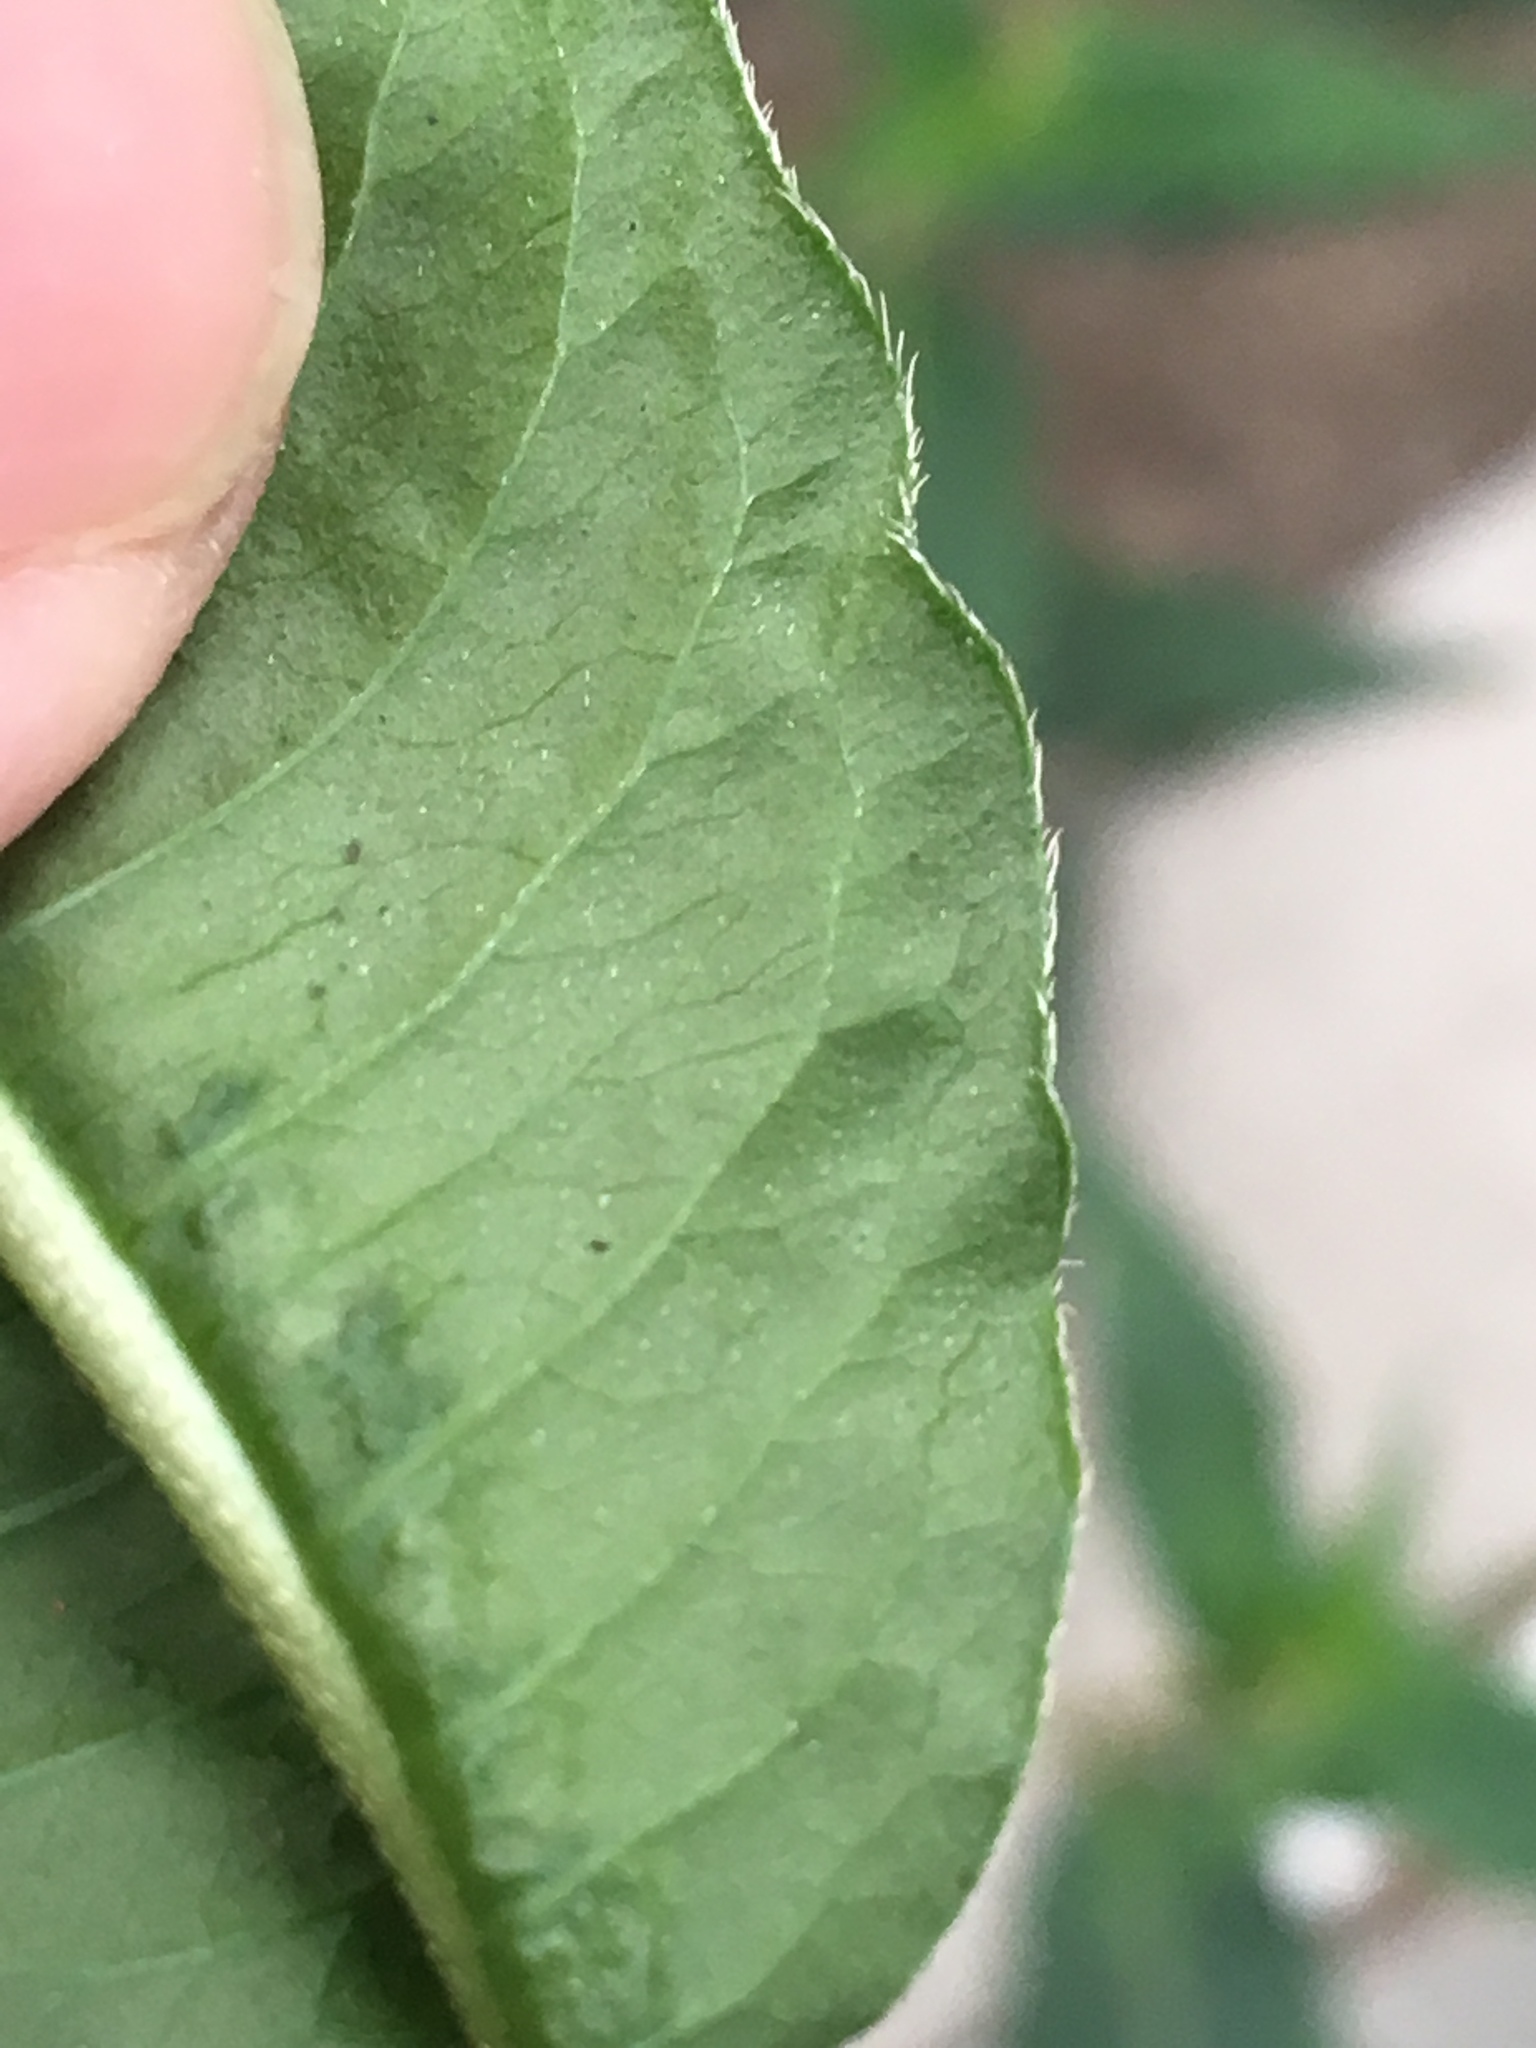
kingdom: Plantae
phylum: Tracheophyta
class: Magnoliopsida
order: Caryophyllales
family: Polygonaceae
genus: Persicaria
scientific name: Persicaria extremiorientalis
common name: Far-eastern smartweed
